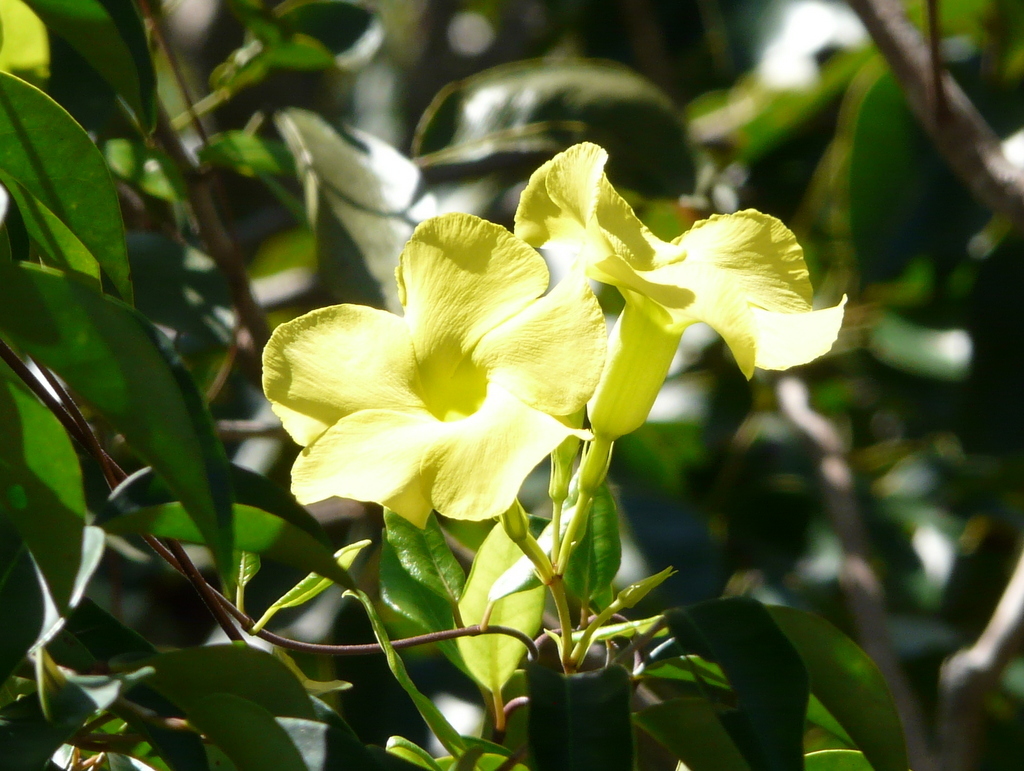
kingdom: Plantae
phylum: Tracheophyta
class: Magnoliopsida
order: Gentianales
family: Apocynaceae
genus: Pentalinon
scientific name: Pentalinon luteum
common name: Licebush
